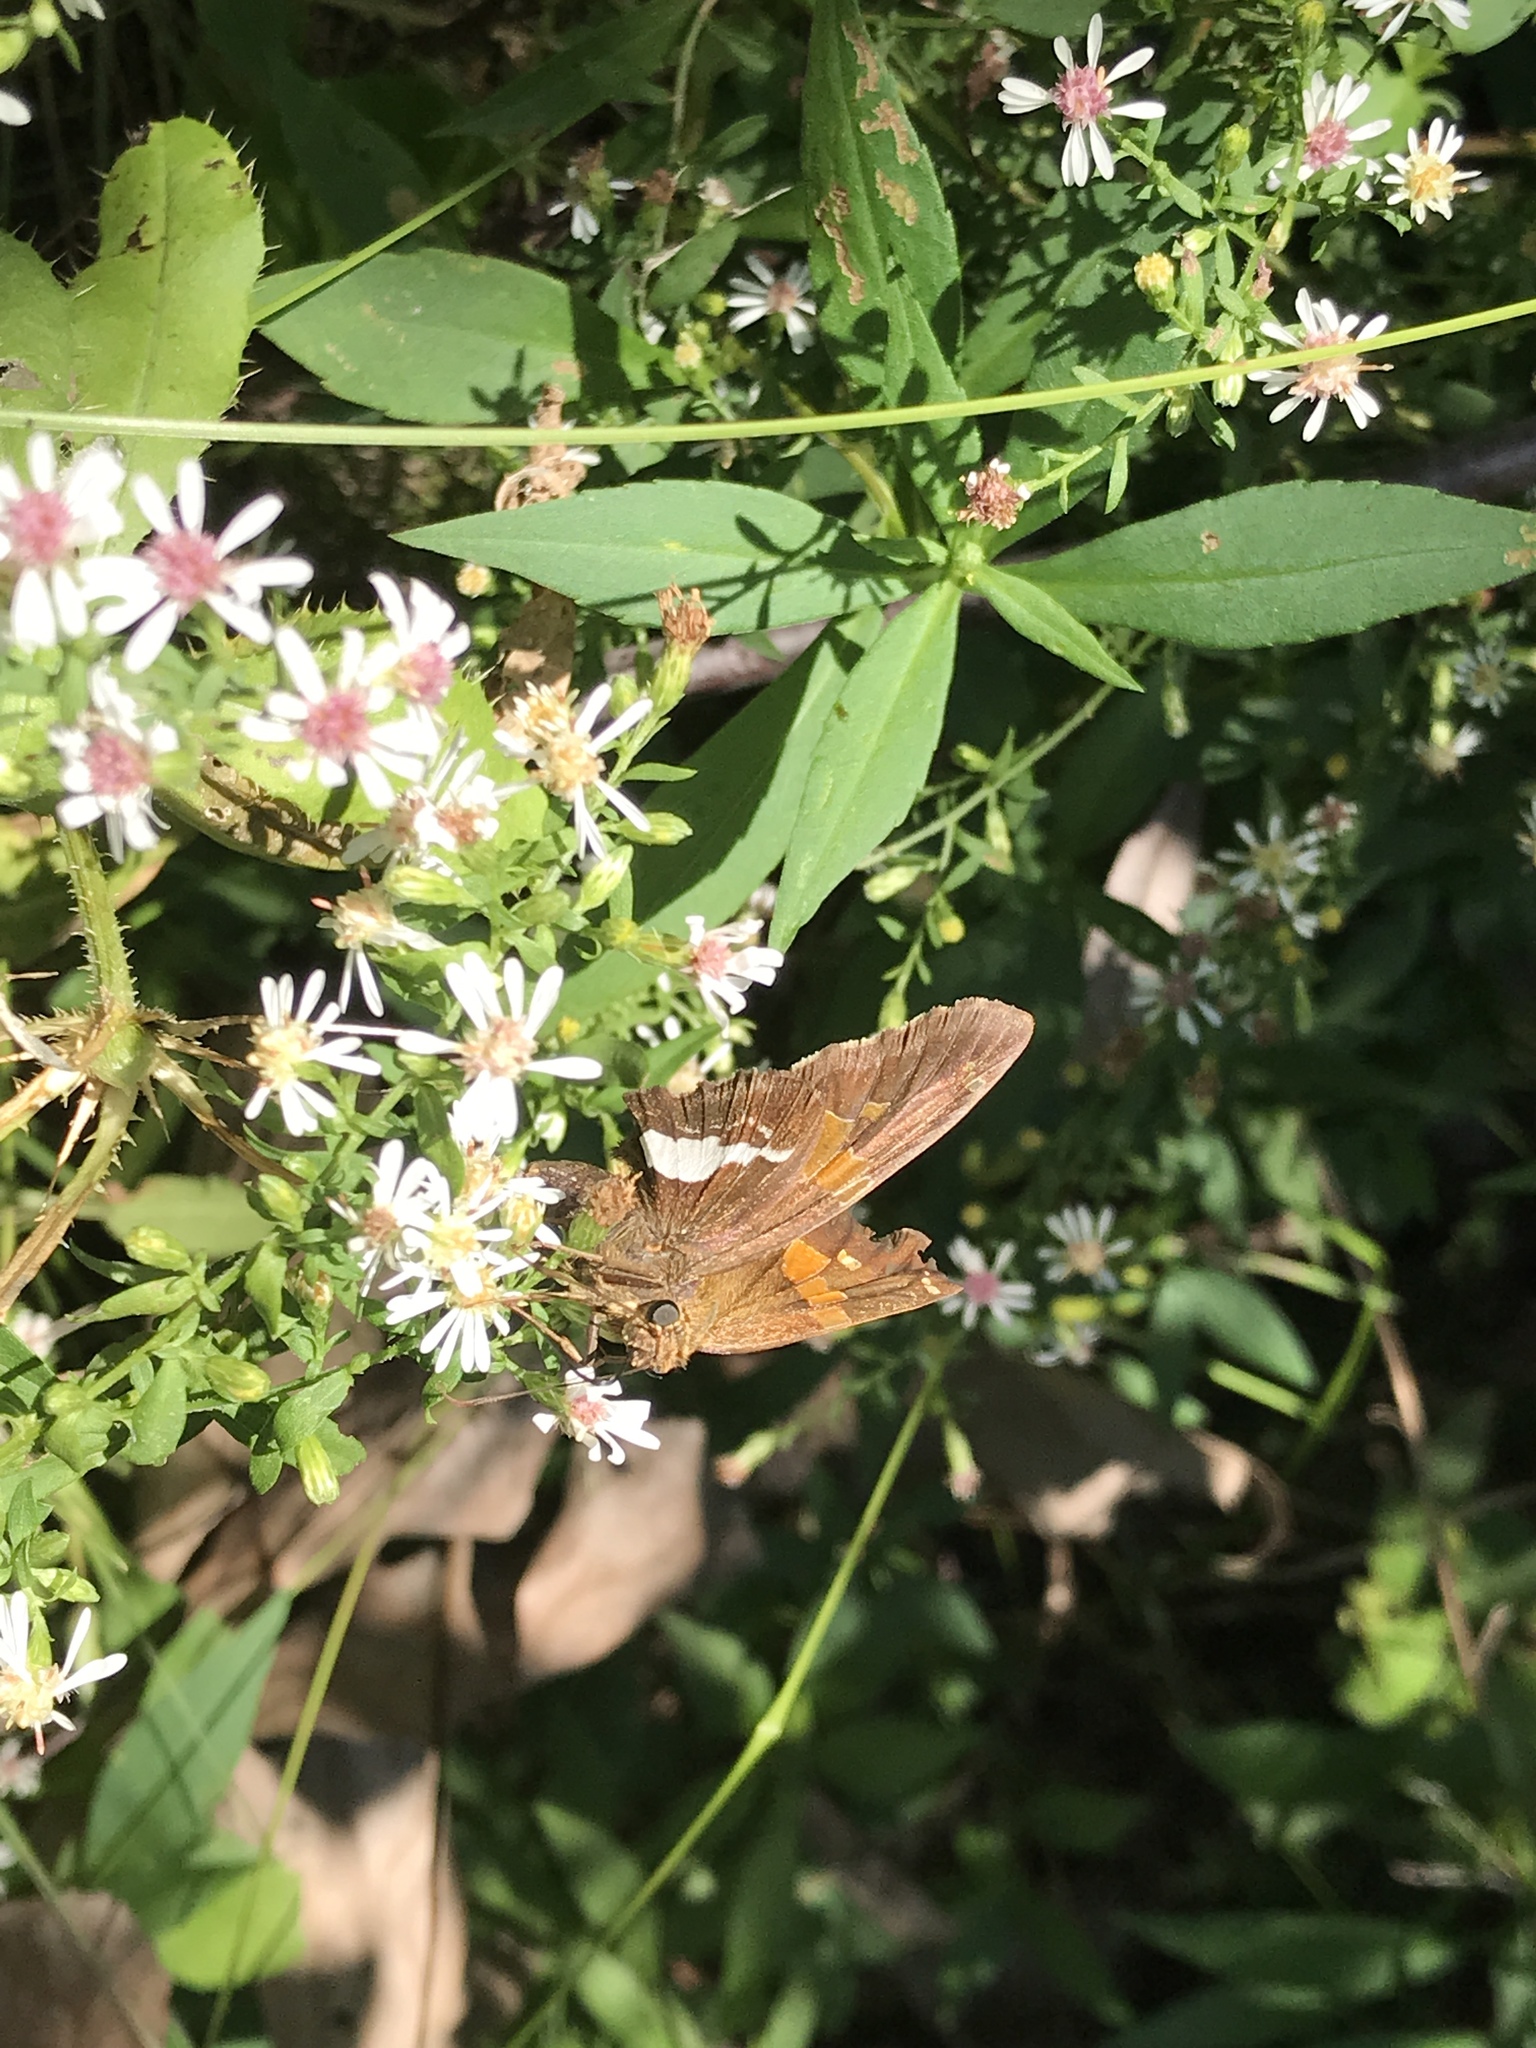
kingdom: Animalia
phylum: Arthropoda
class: Insecta
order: Lepidoptera
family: Hesperiidae
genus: Epargyreus
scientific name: Epargyreus clarus
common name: Silver-spotted skipper
